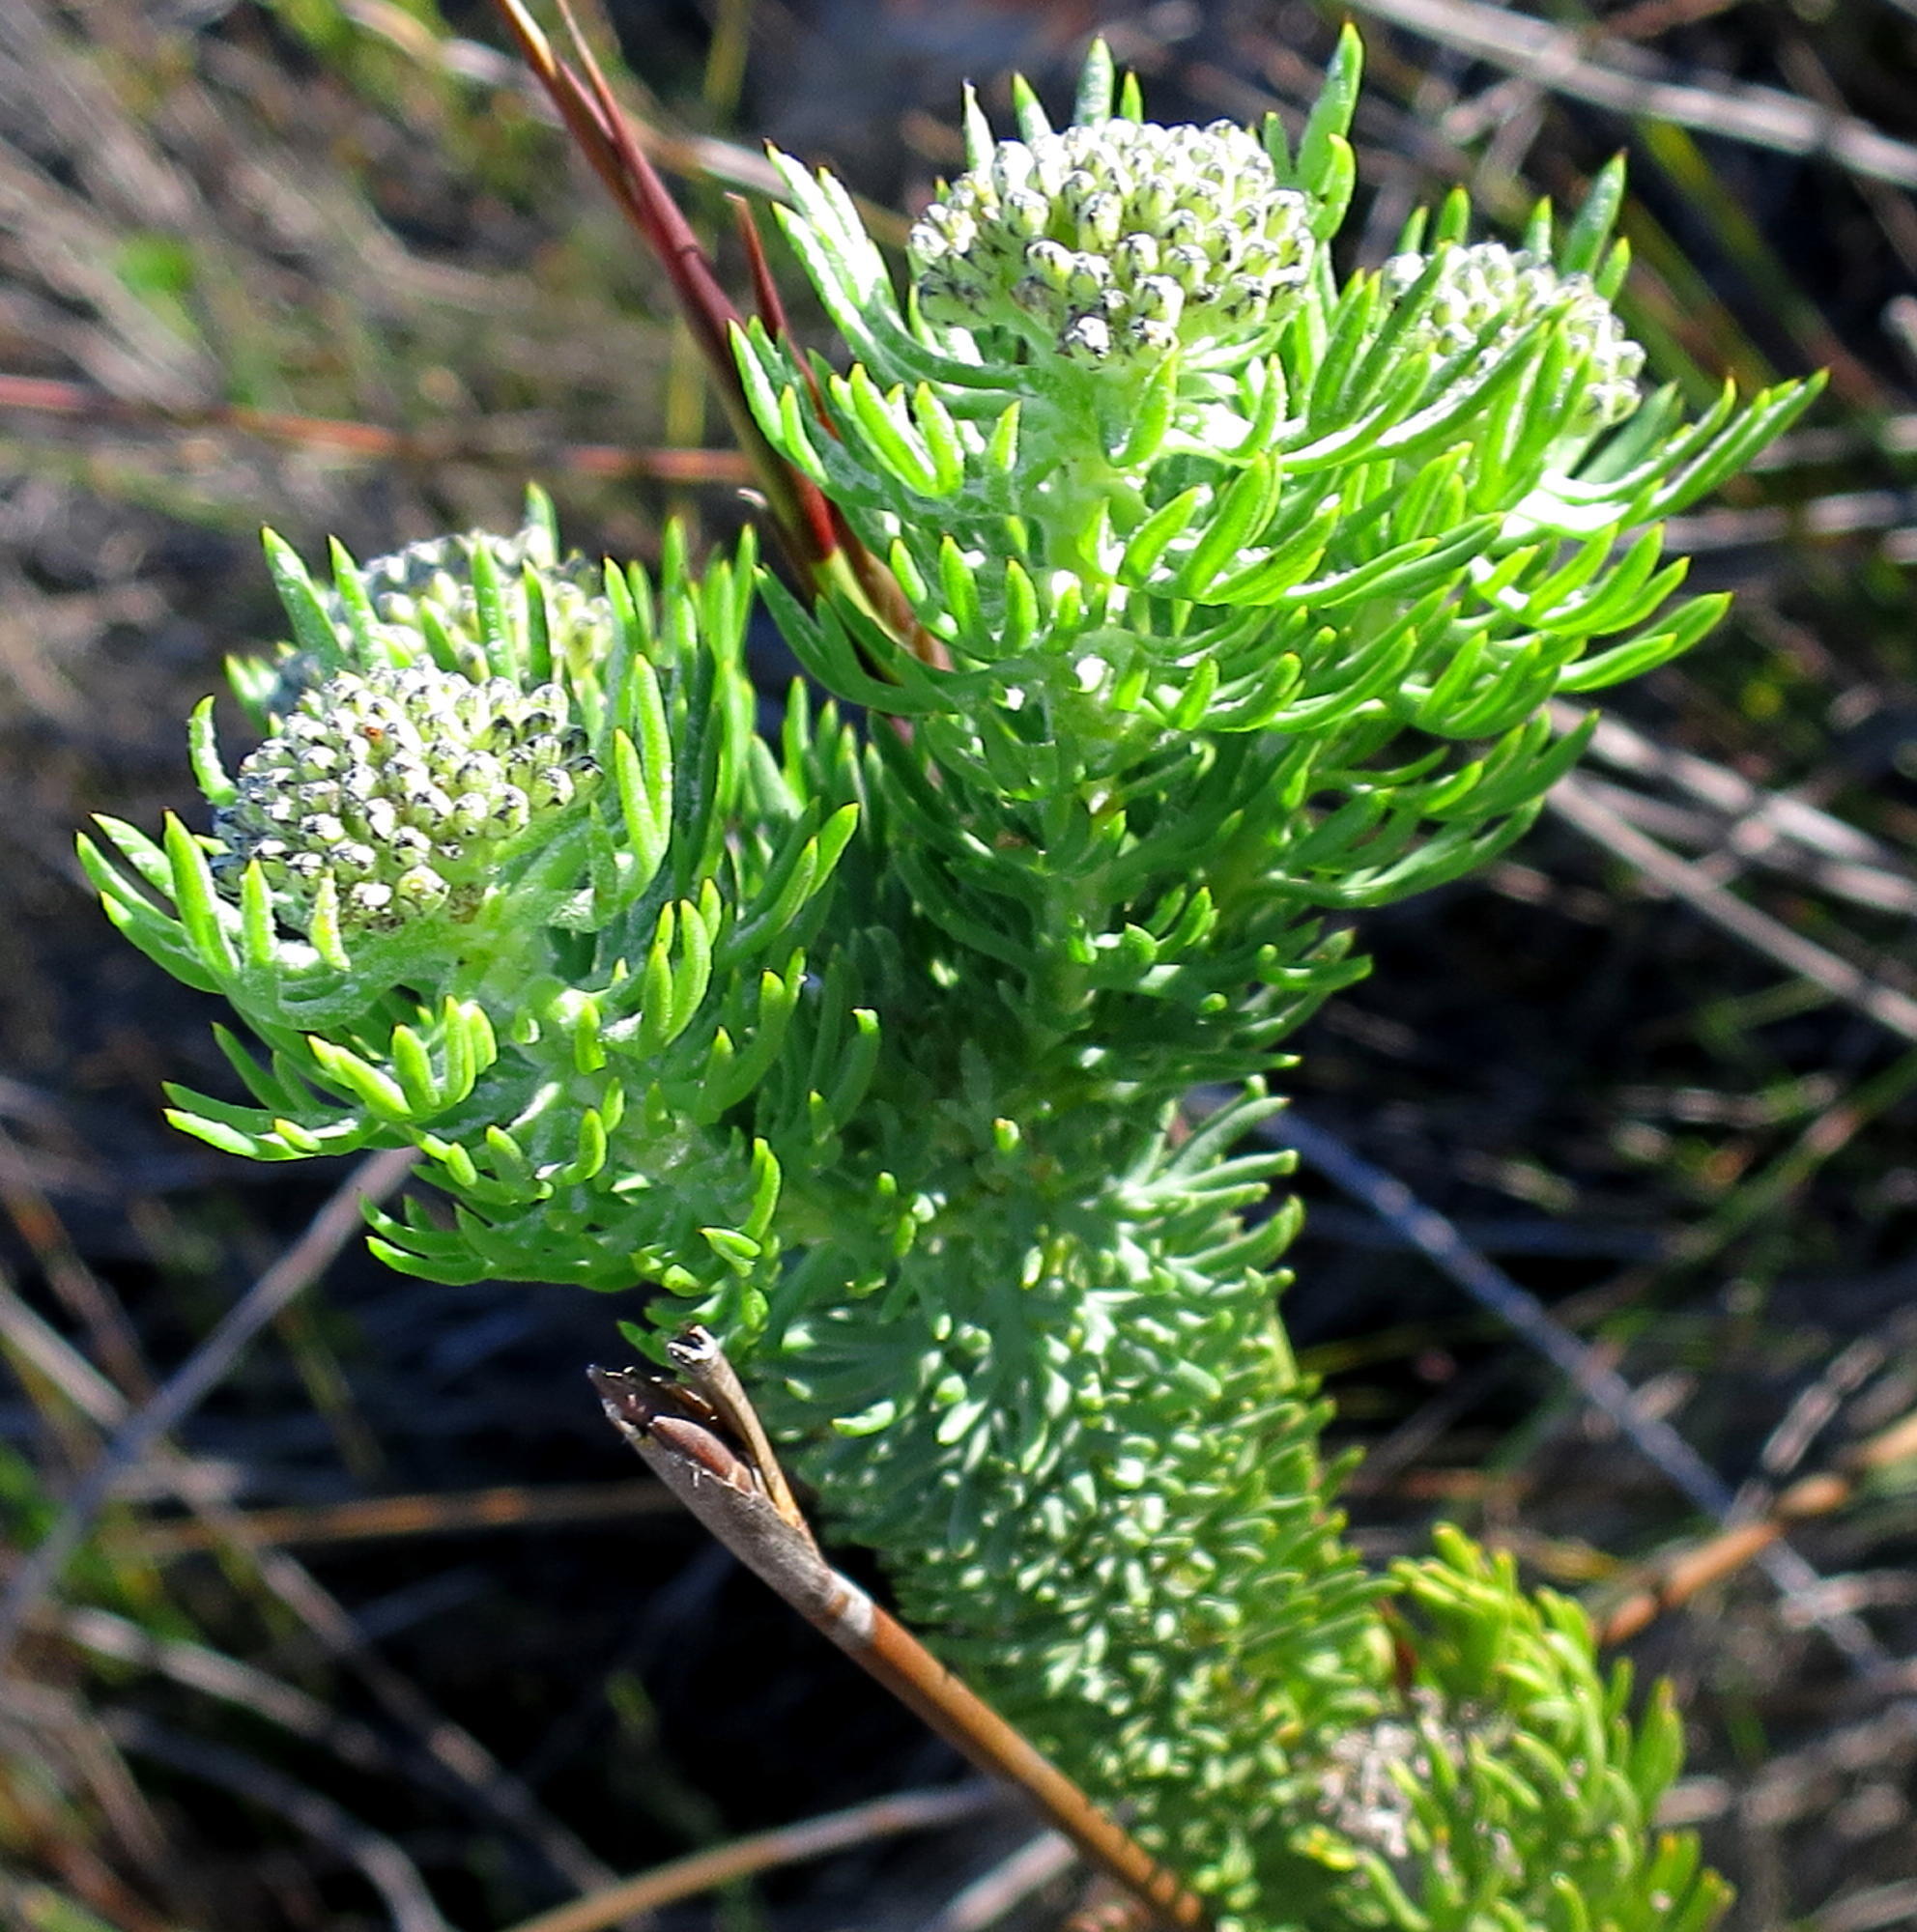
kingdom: Plantae
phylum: Tracheophyta
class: Magnoliopsida
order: Asterales
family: Asteraceae
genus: Hymenolepis
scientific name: Hymenolepis incisa
